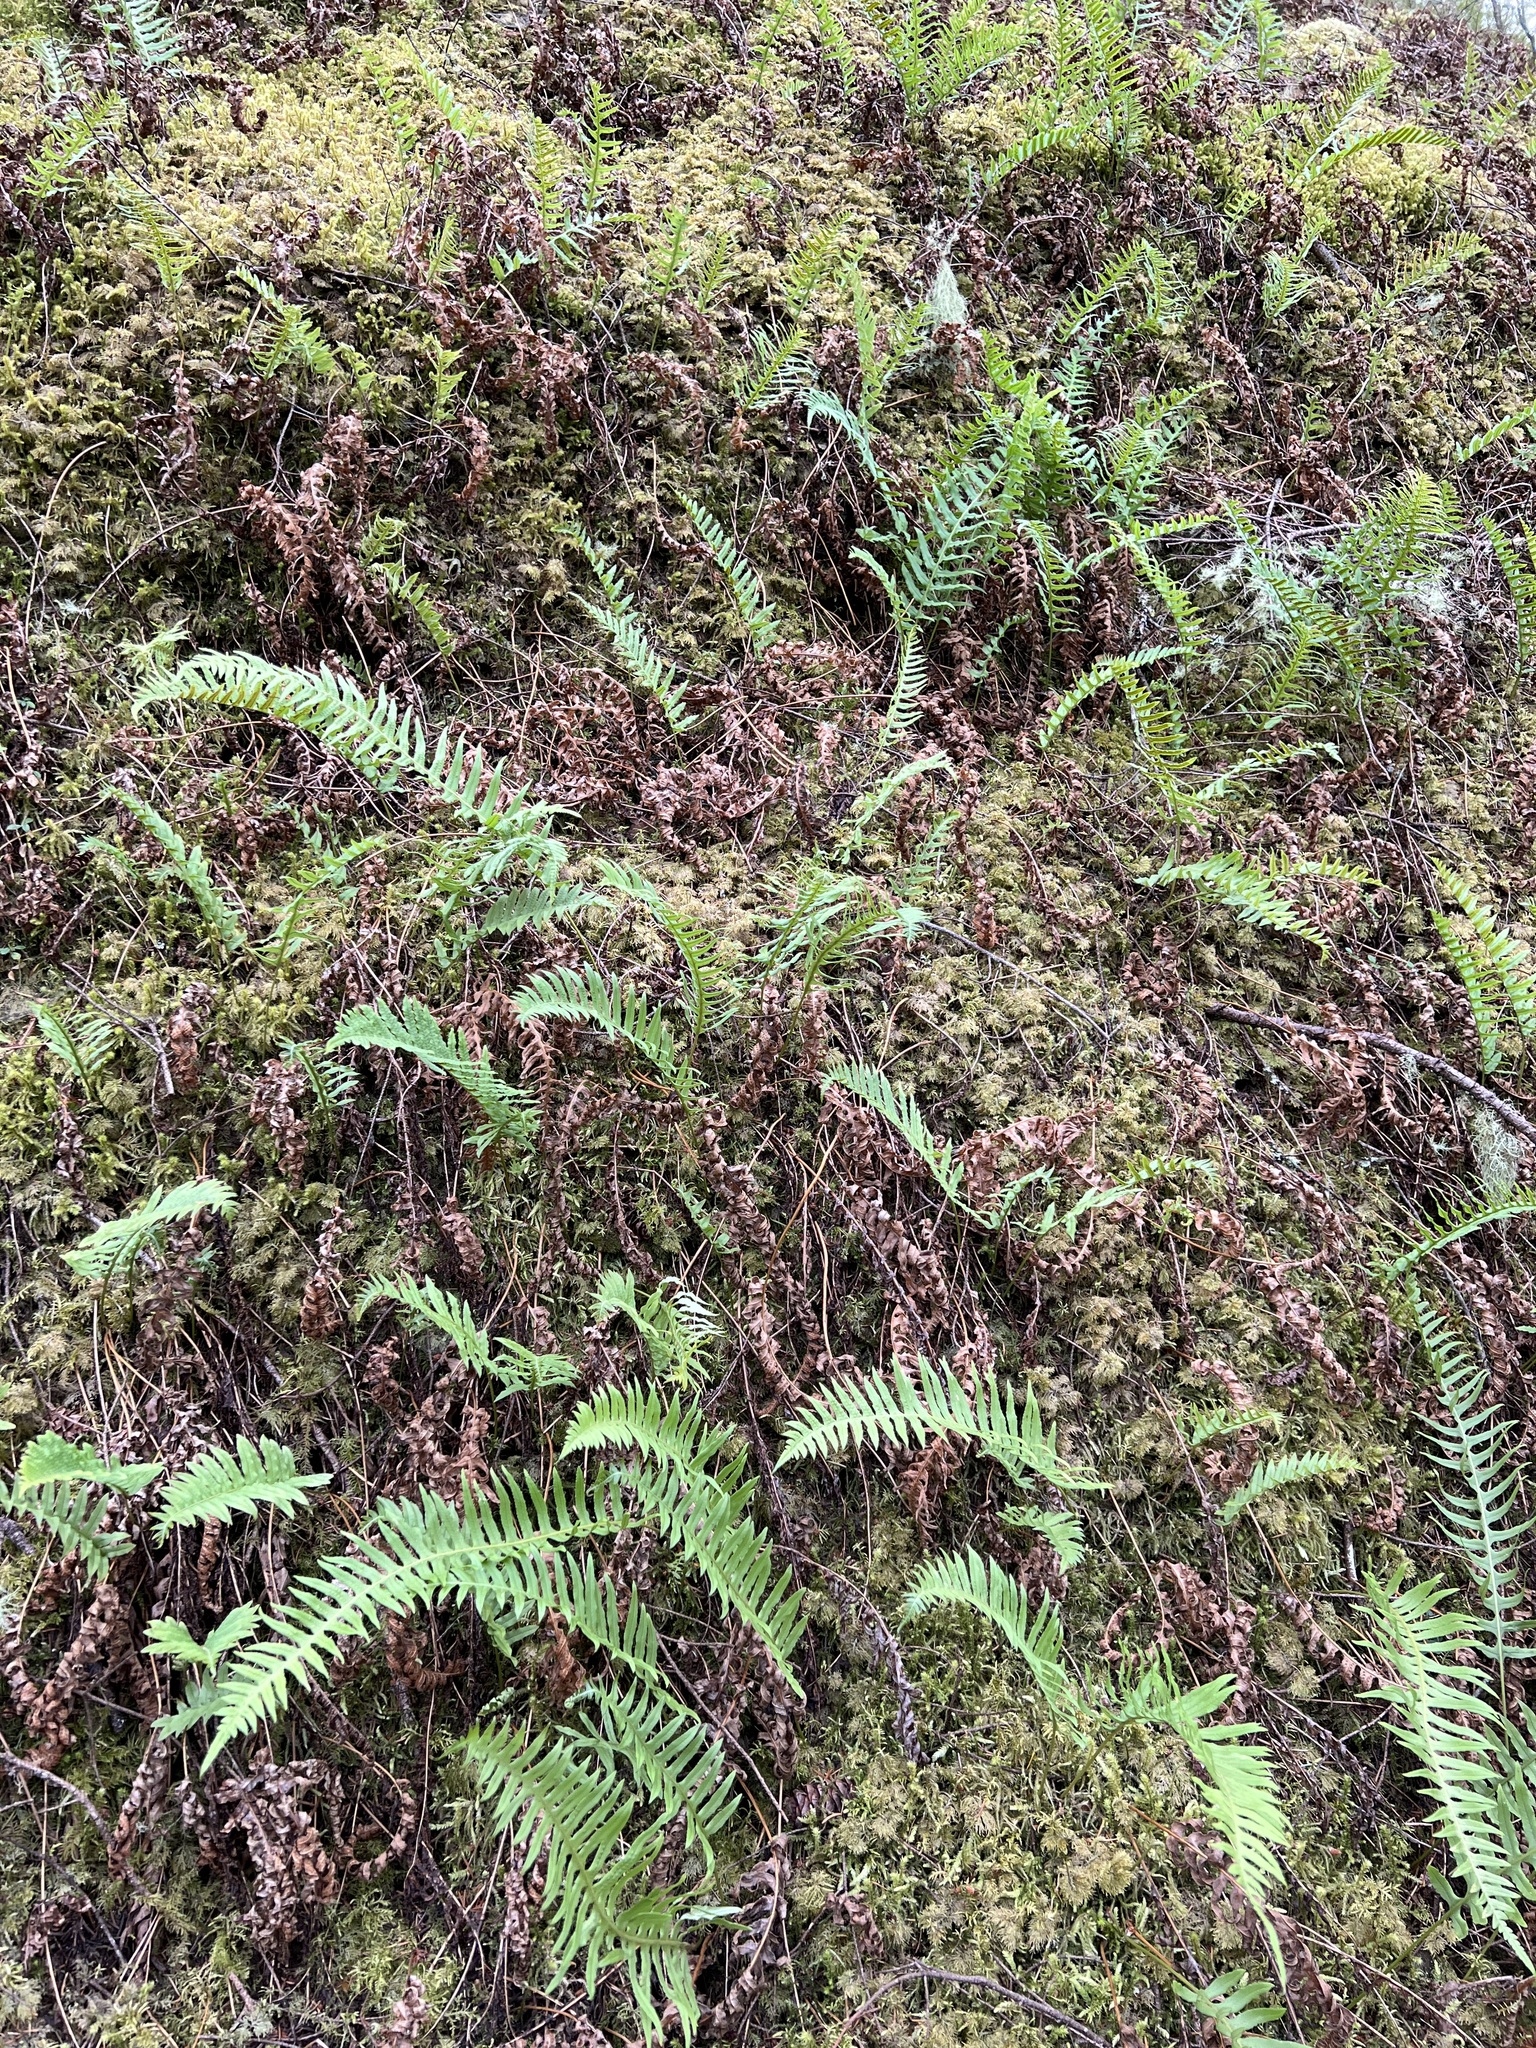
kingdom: Plantae
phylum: Tracheophyta
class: Polypodiopsida
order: Polypodiales
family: Polypodiaceae
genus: Polypodium
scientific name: Polypodium glycyrrhiza
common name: Licorice fern
